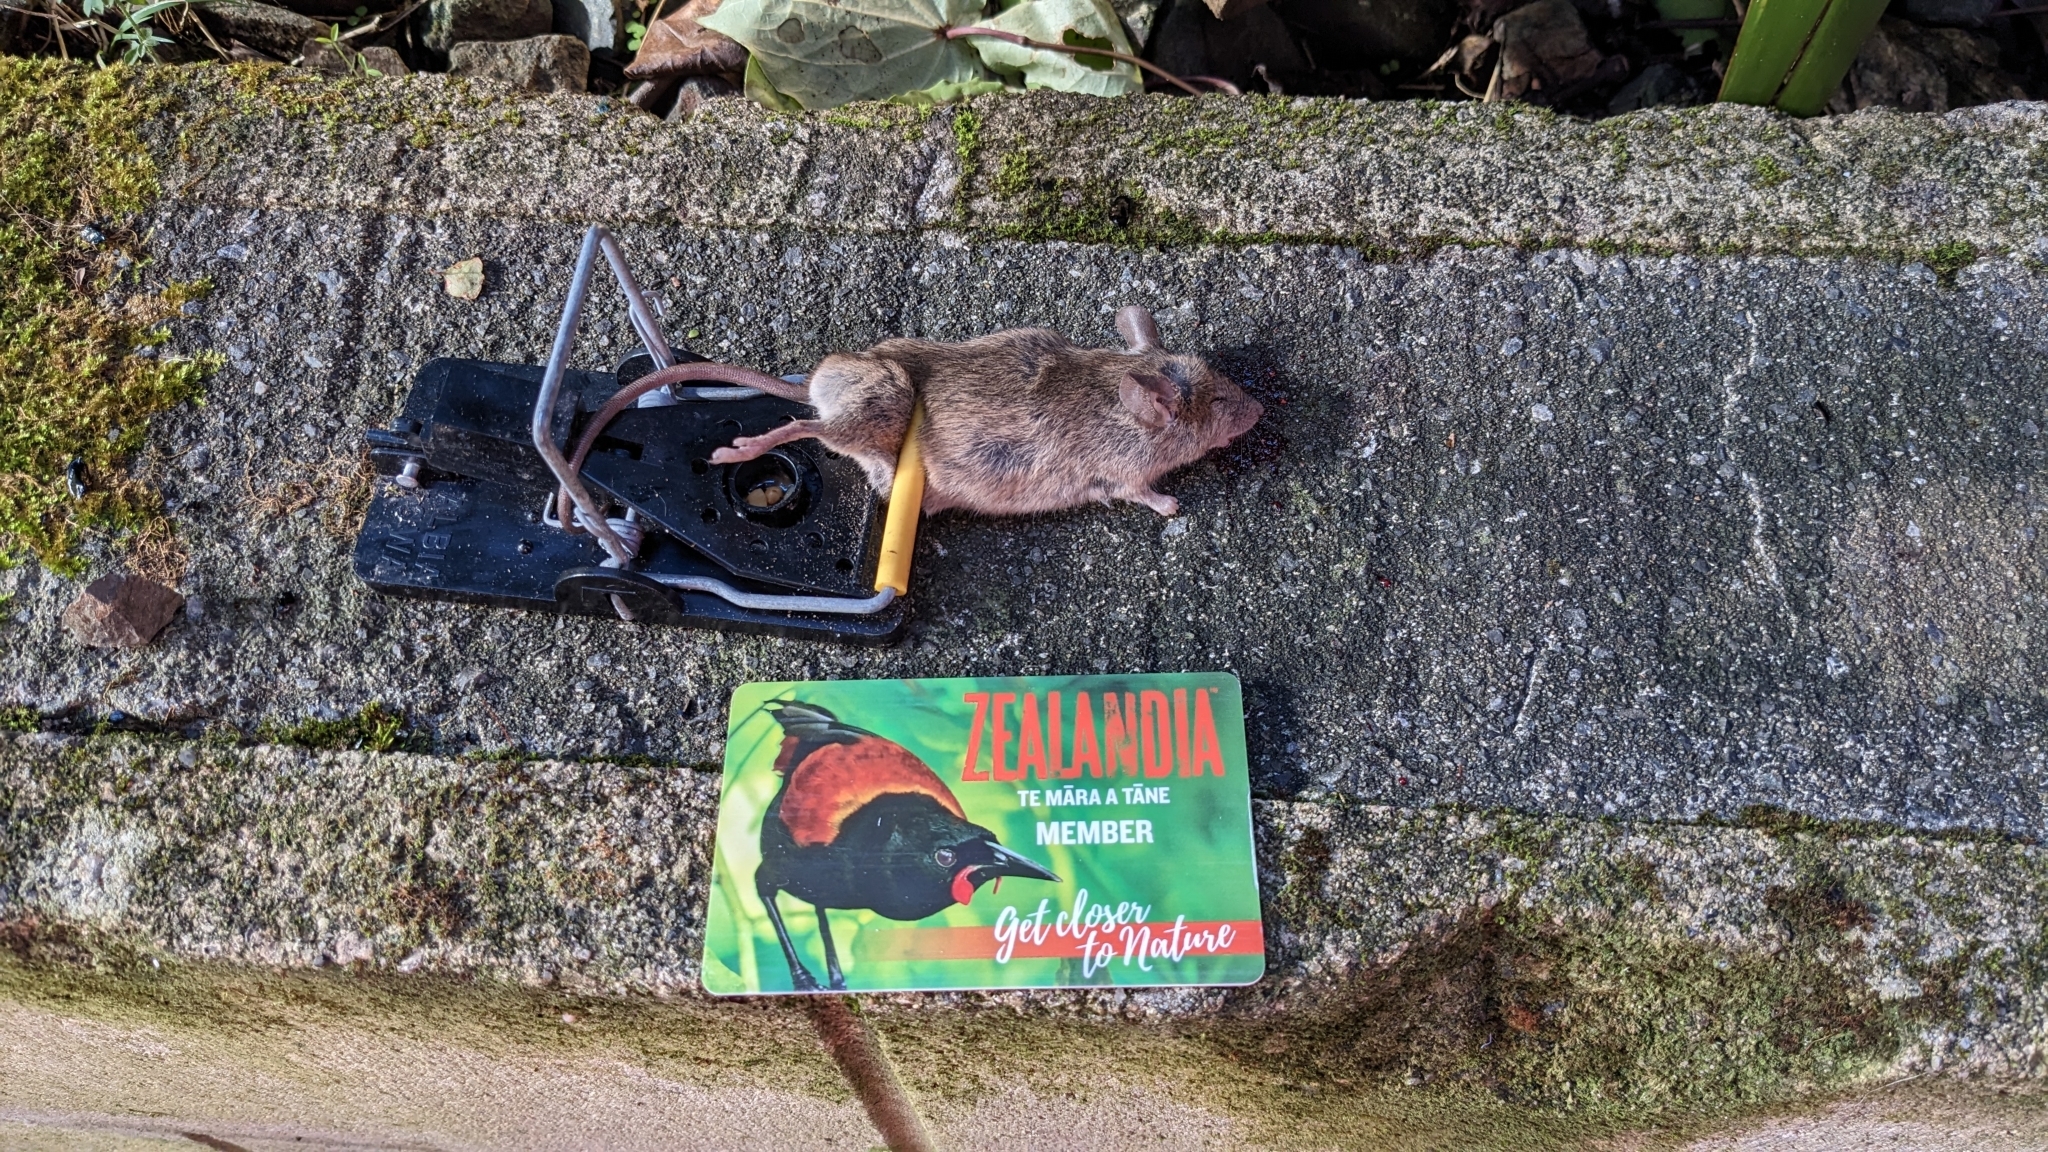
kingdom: Animalia
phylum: Chordata
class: Mammalia
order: Rodentia
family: Muridae
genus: Mus
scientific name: Mus musculus
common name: House mouse
